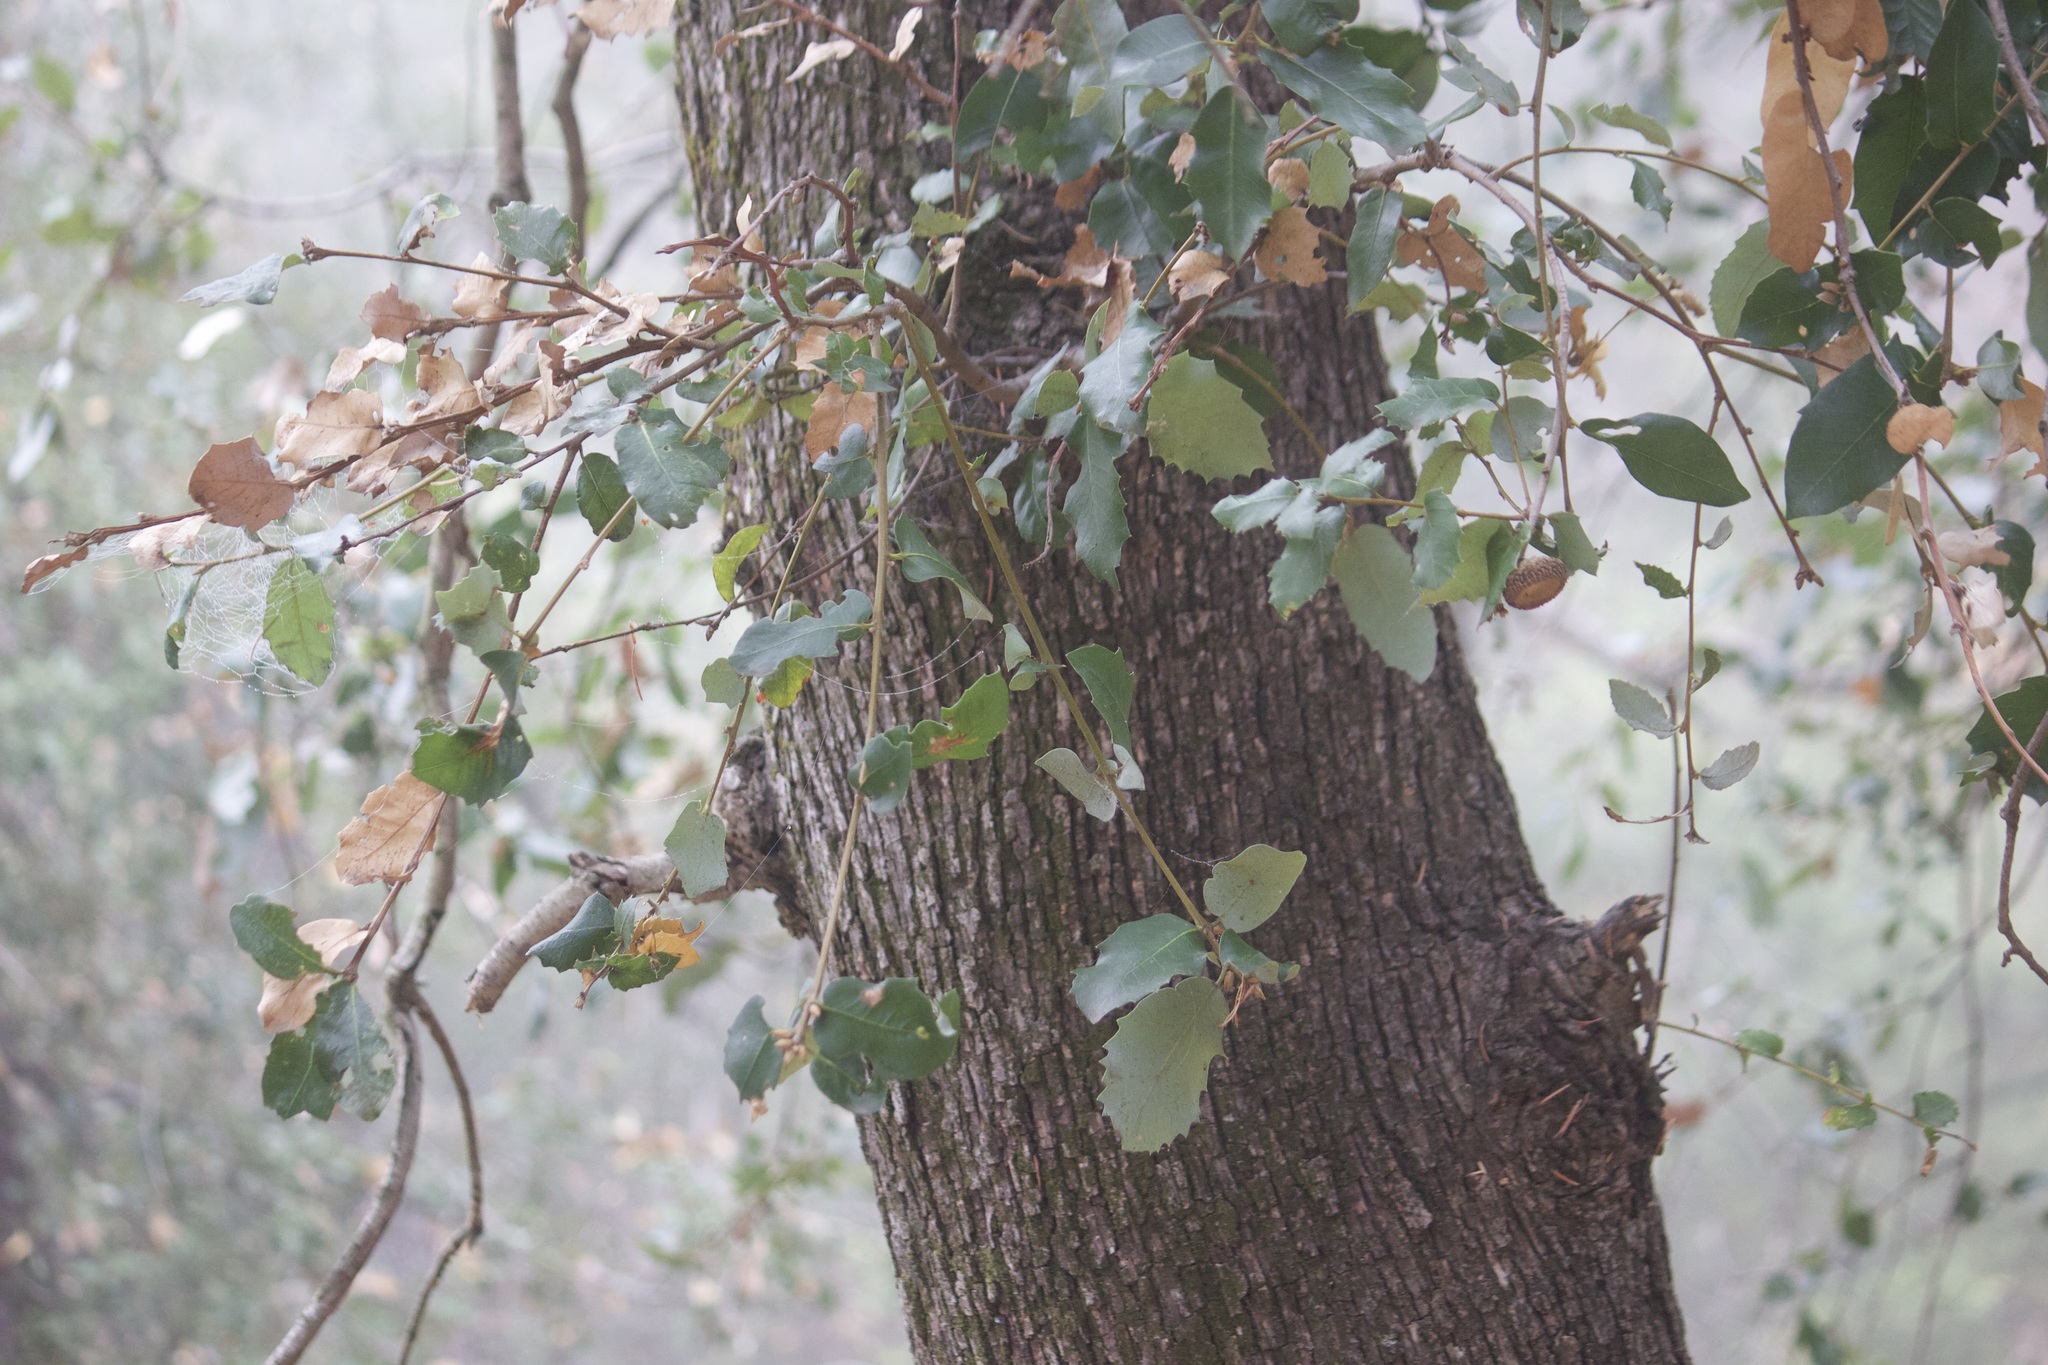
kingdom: Plantae
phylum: Tracheophyta
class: Magnoliopsida
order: Fagales
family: Fagaceae
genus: Quercus
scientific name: Quercus chrysolepis
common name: Canyon live oak
